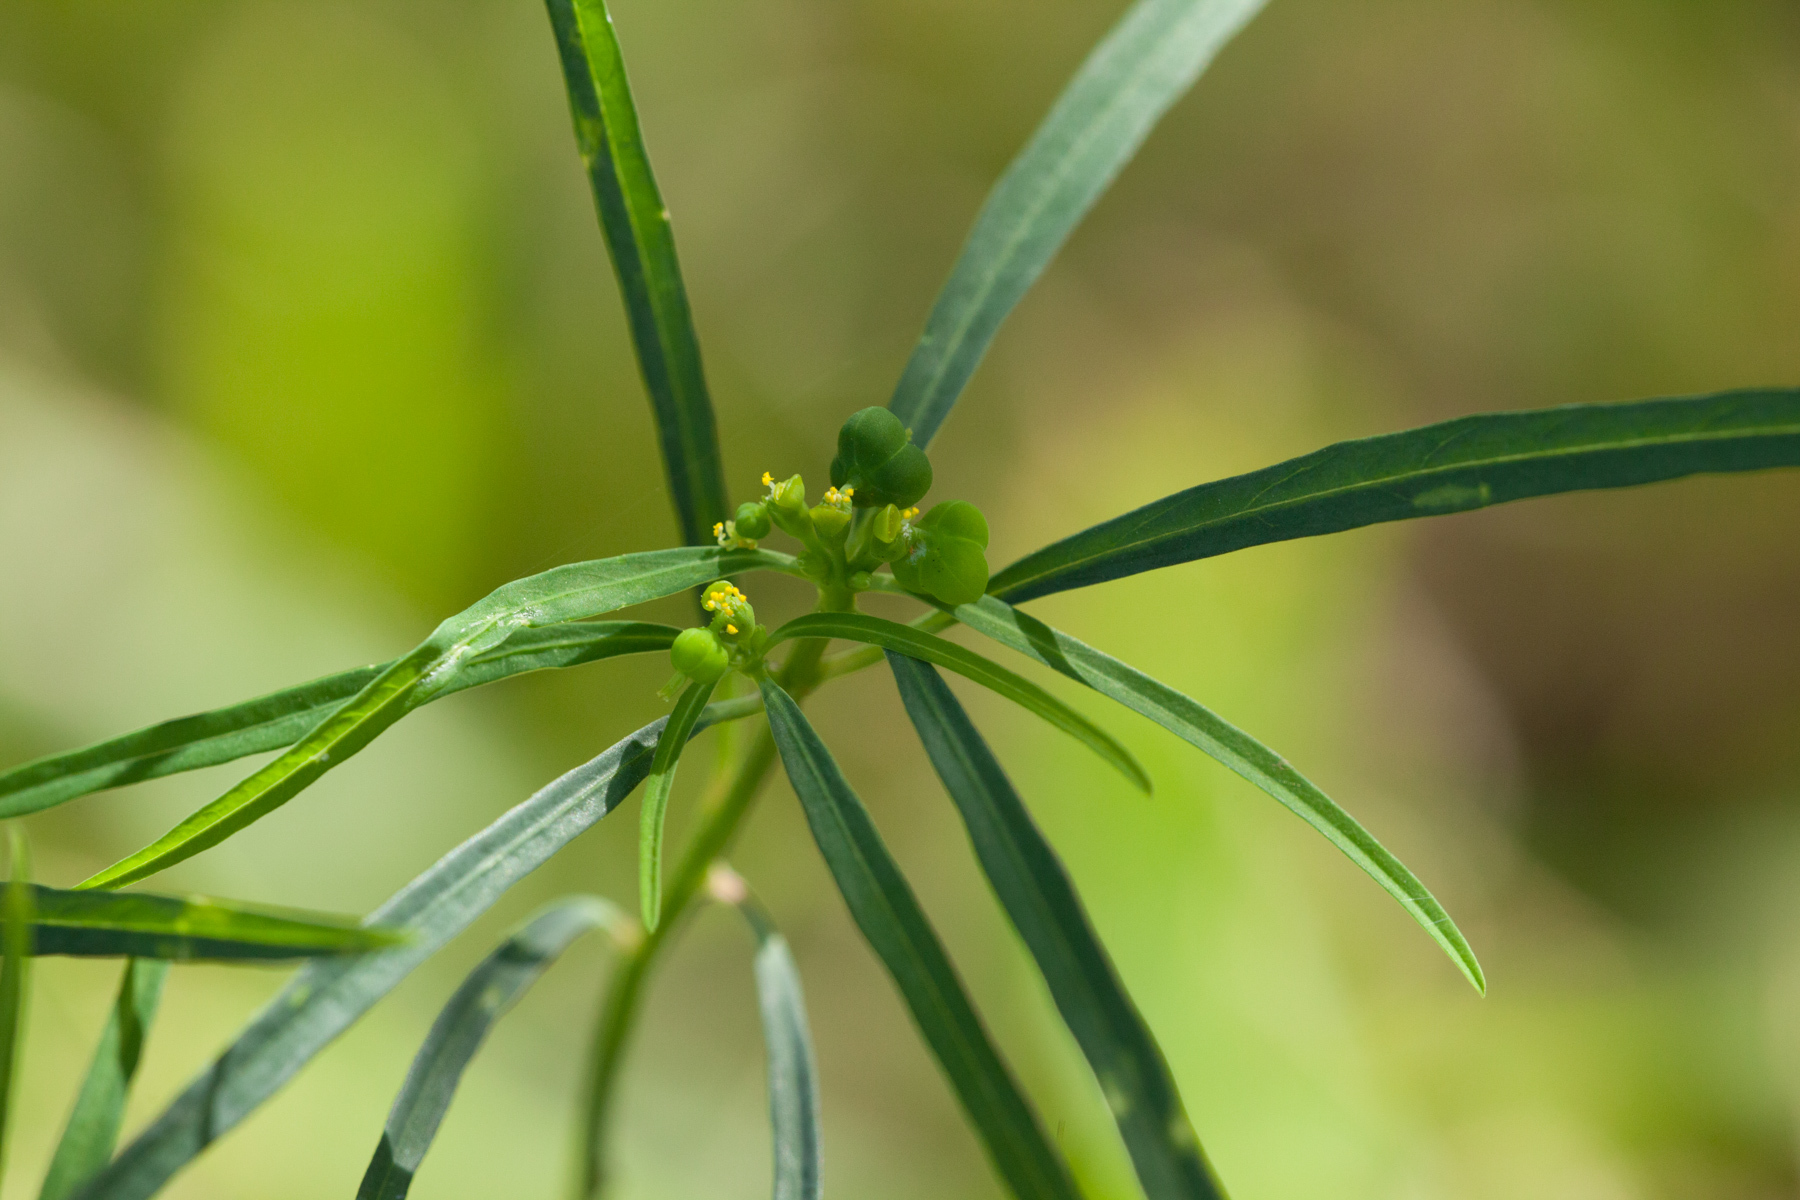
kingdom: Plantae
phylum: Tracheophyta
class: Magnoliopsida
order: Malpighiales
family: Euphorbiaceae
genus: Euphorbia
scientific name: Euphorbia heterophylla
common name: Mexican fireplant
